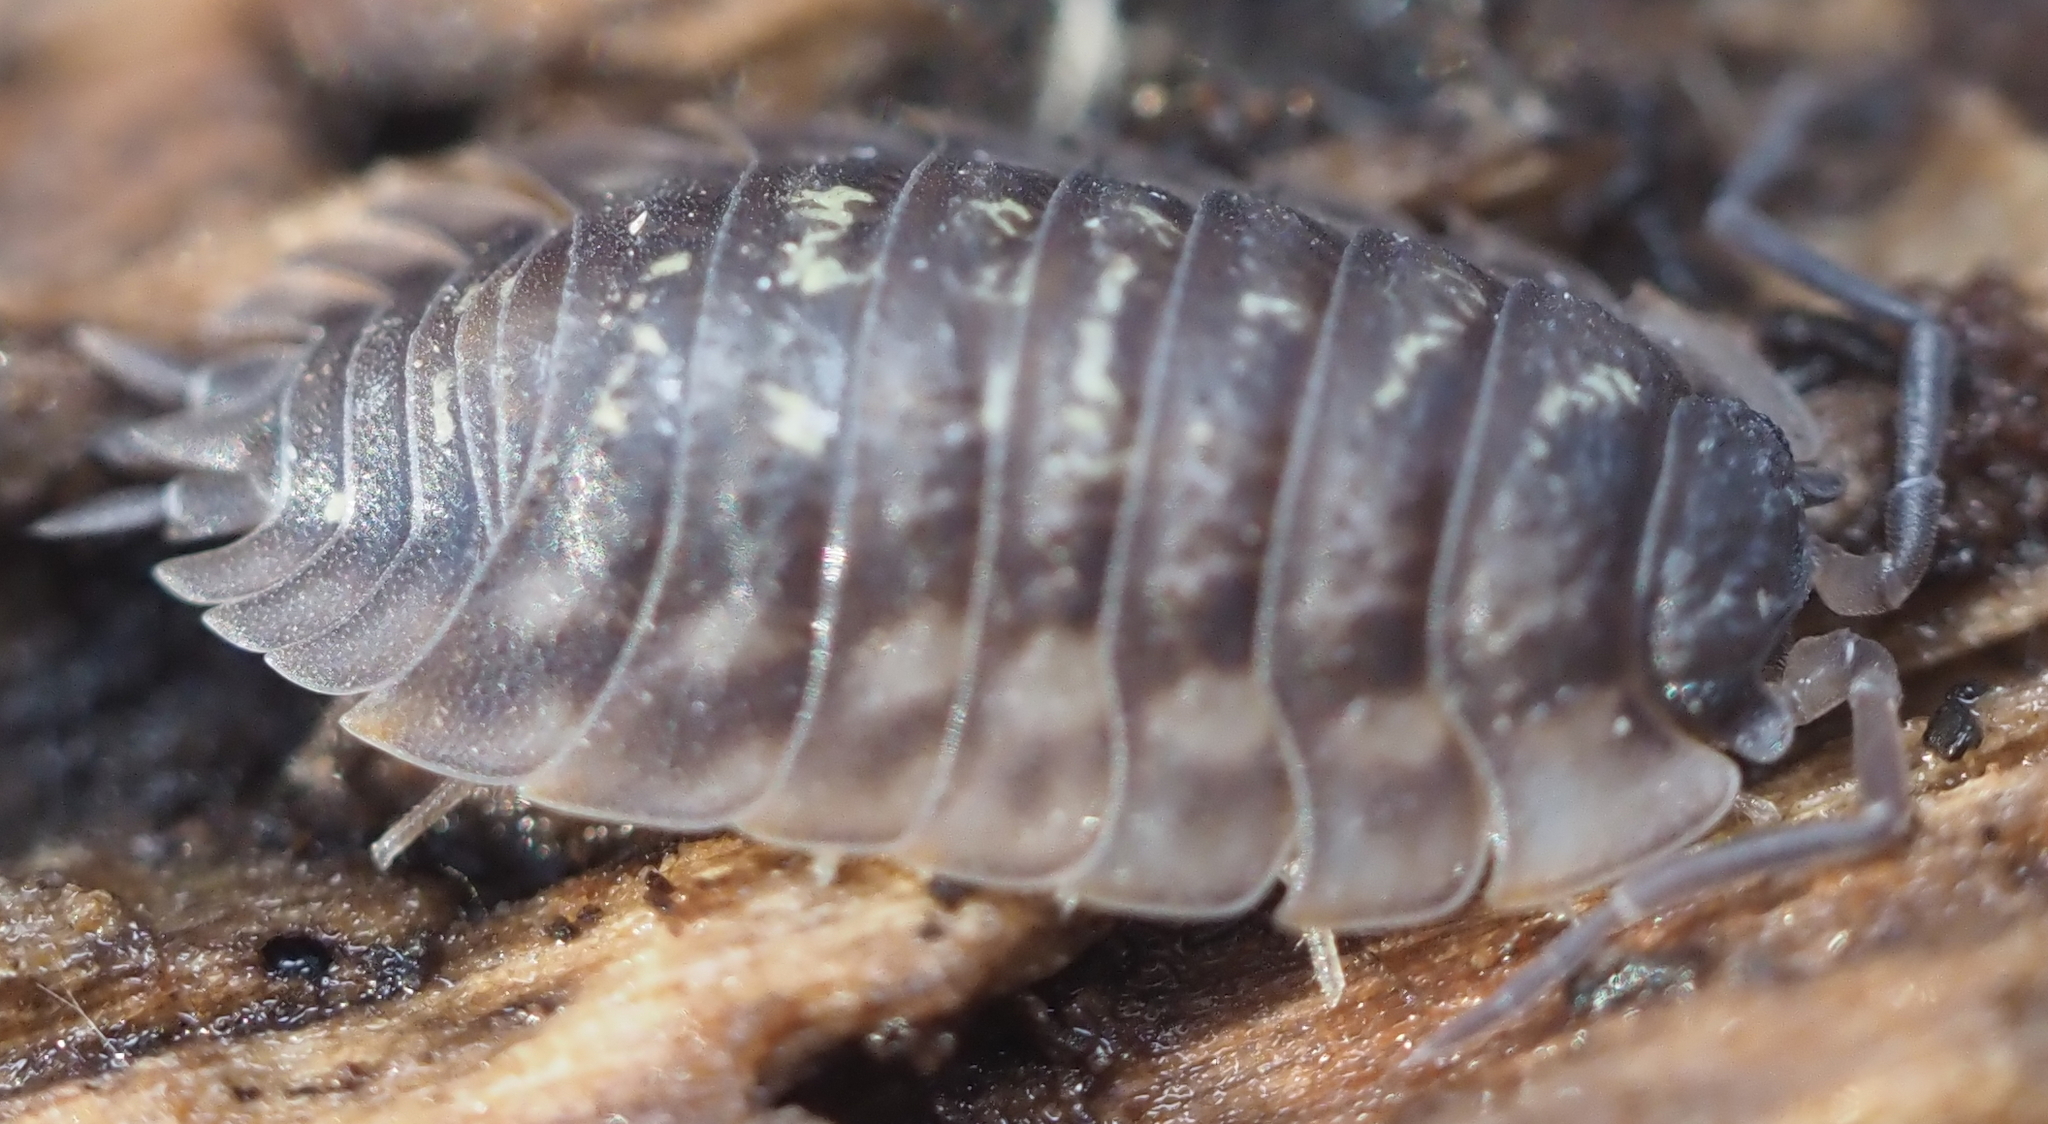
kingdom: Animalia
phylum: Arthropoda
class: Malacostraca
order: Isopoda
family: Oniscidae
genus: Oniscus
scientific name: Oniscus asellus
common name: Common shiny woodlouse
